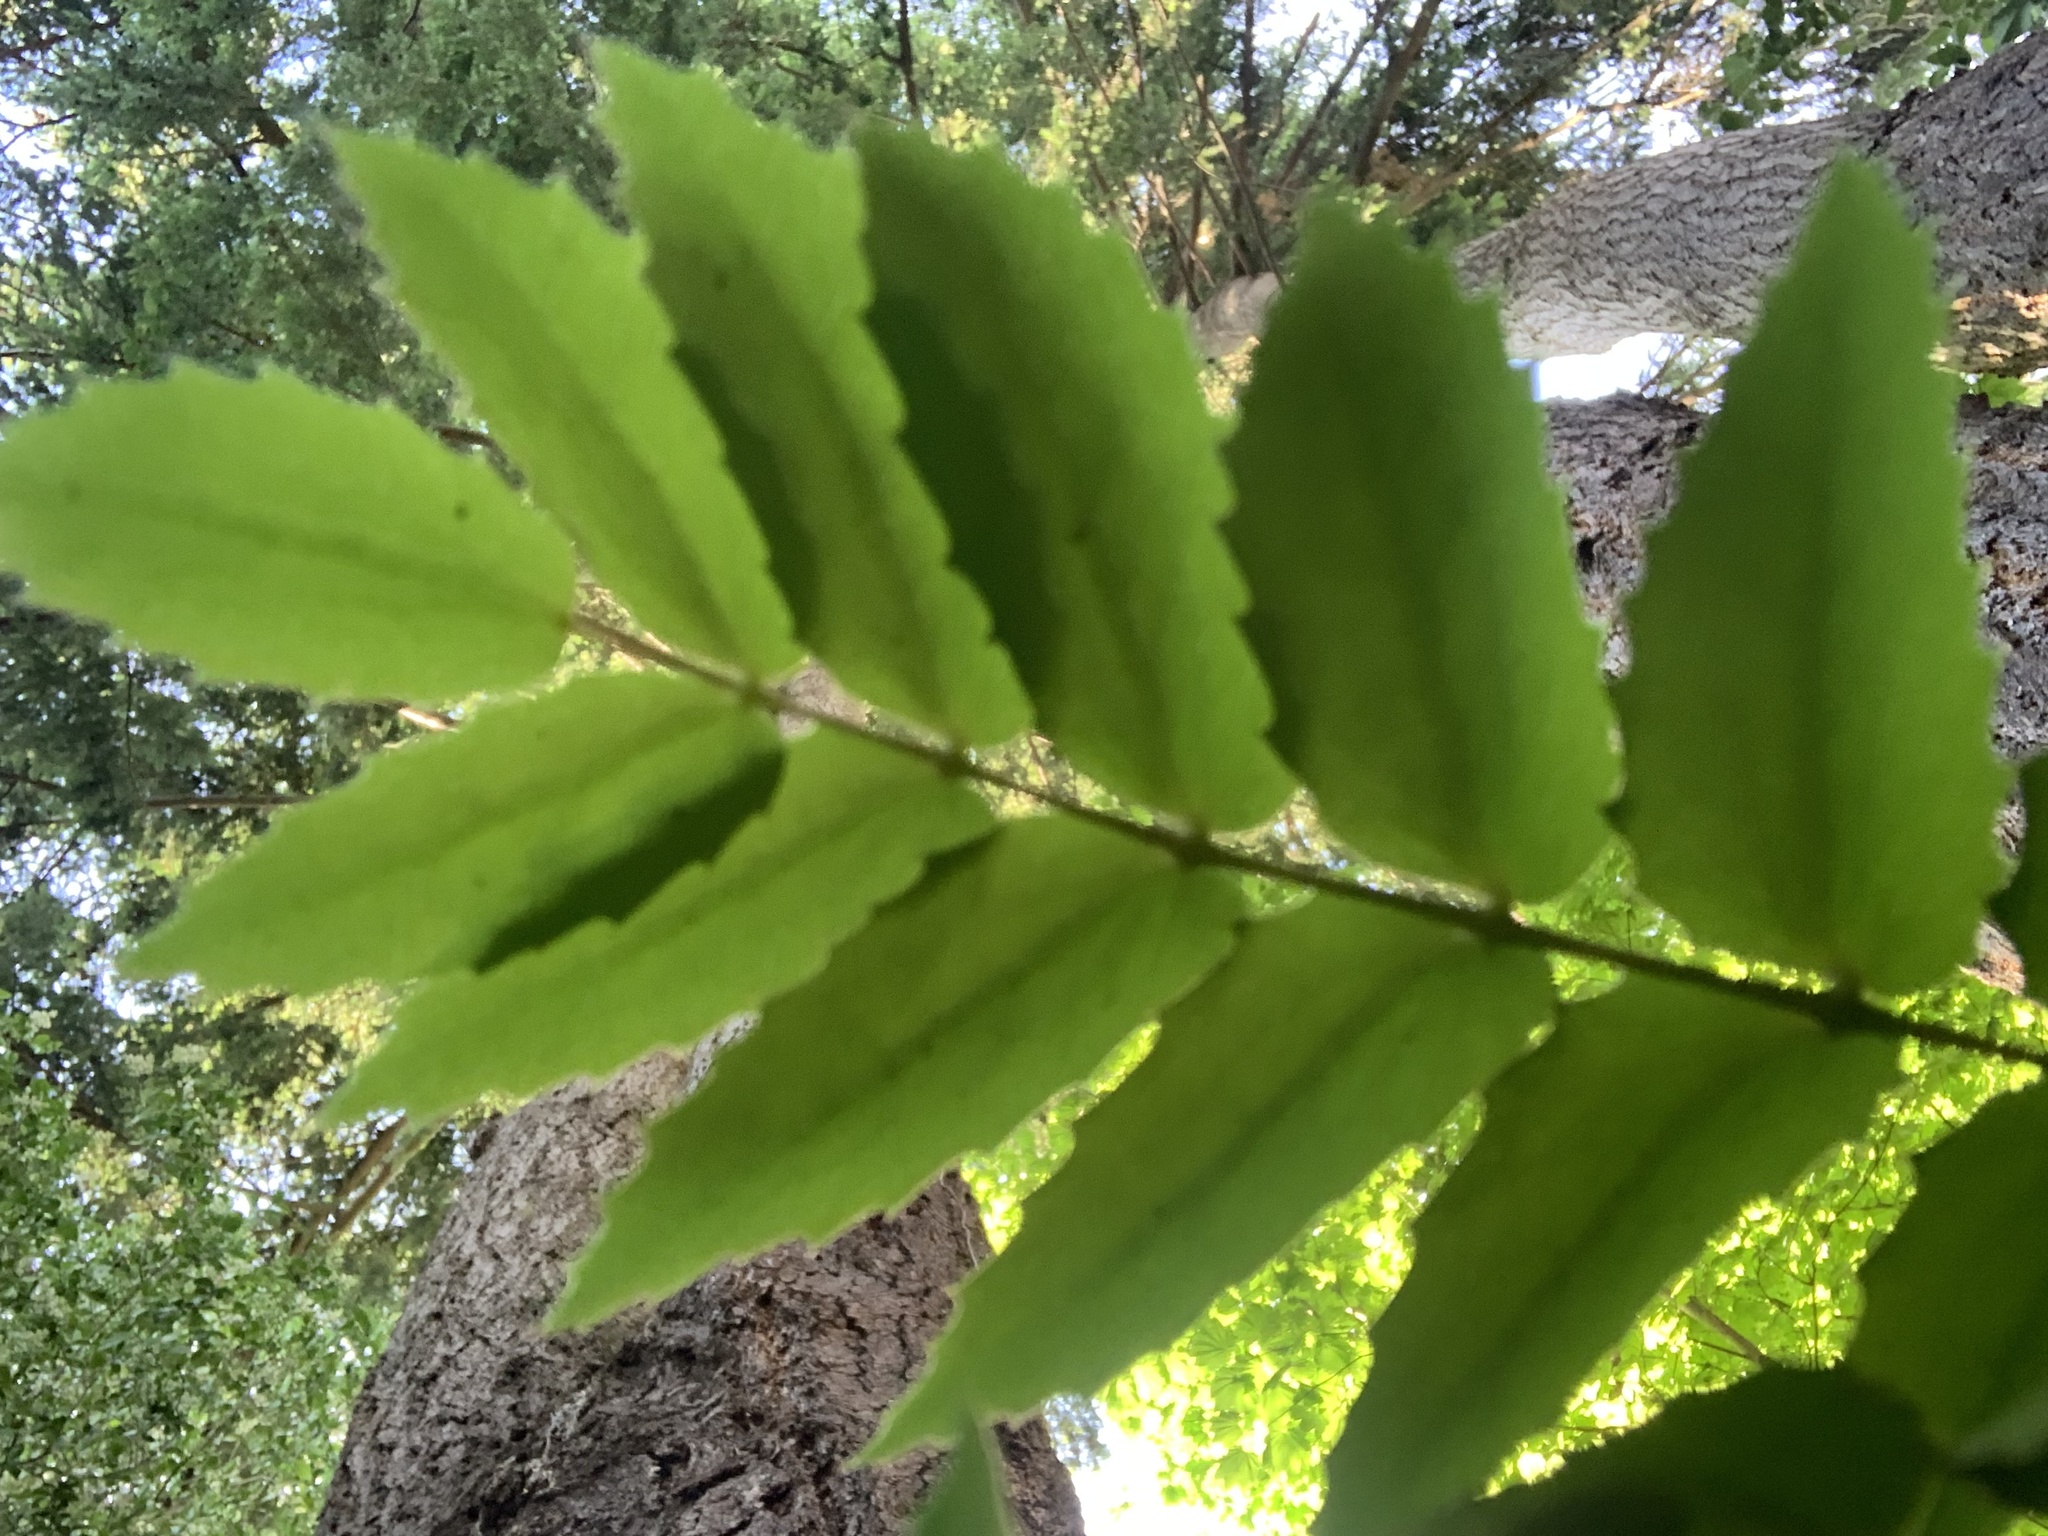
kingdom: Plantae
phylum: Tracheophyta
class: Magnoliopsida
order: Ranunculales
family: Berberidaceae
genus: Mahonia
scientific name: Mahonia nervosa
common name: Cascade oregon-grape
